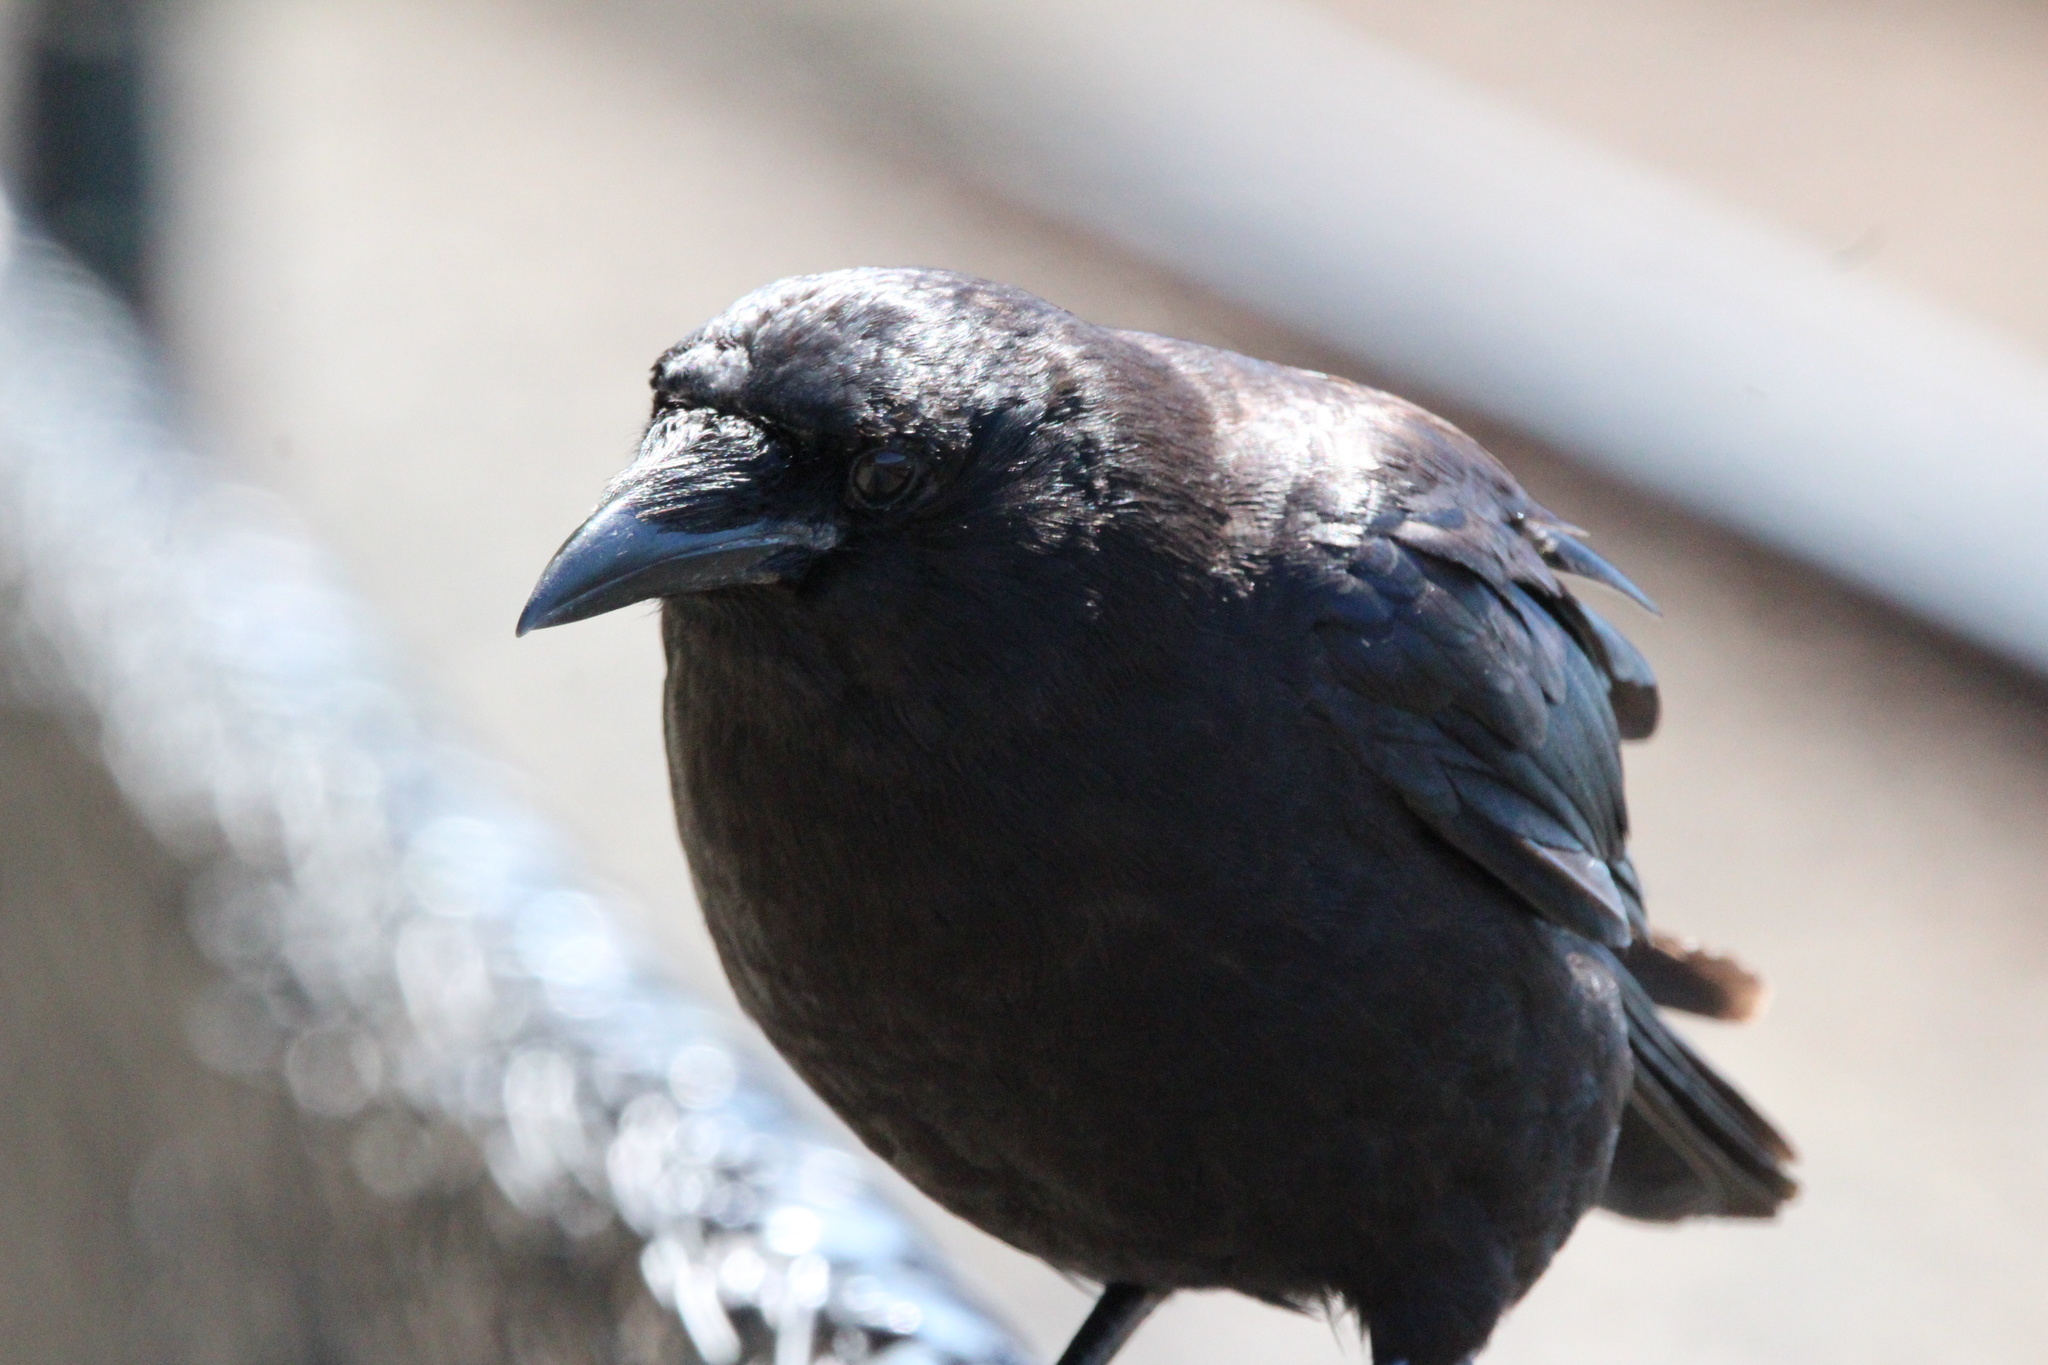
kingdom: Animalia
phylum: Chordata
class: Aves
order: Passeriformes
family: Corvidae
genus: Corvus
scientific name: Corvus brachyrhynchos
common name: American crow
